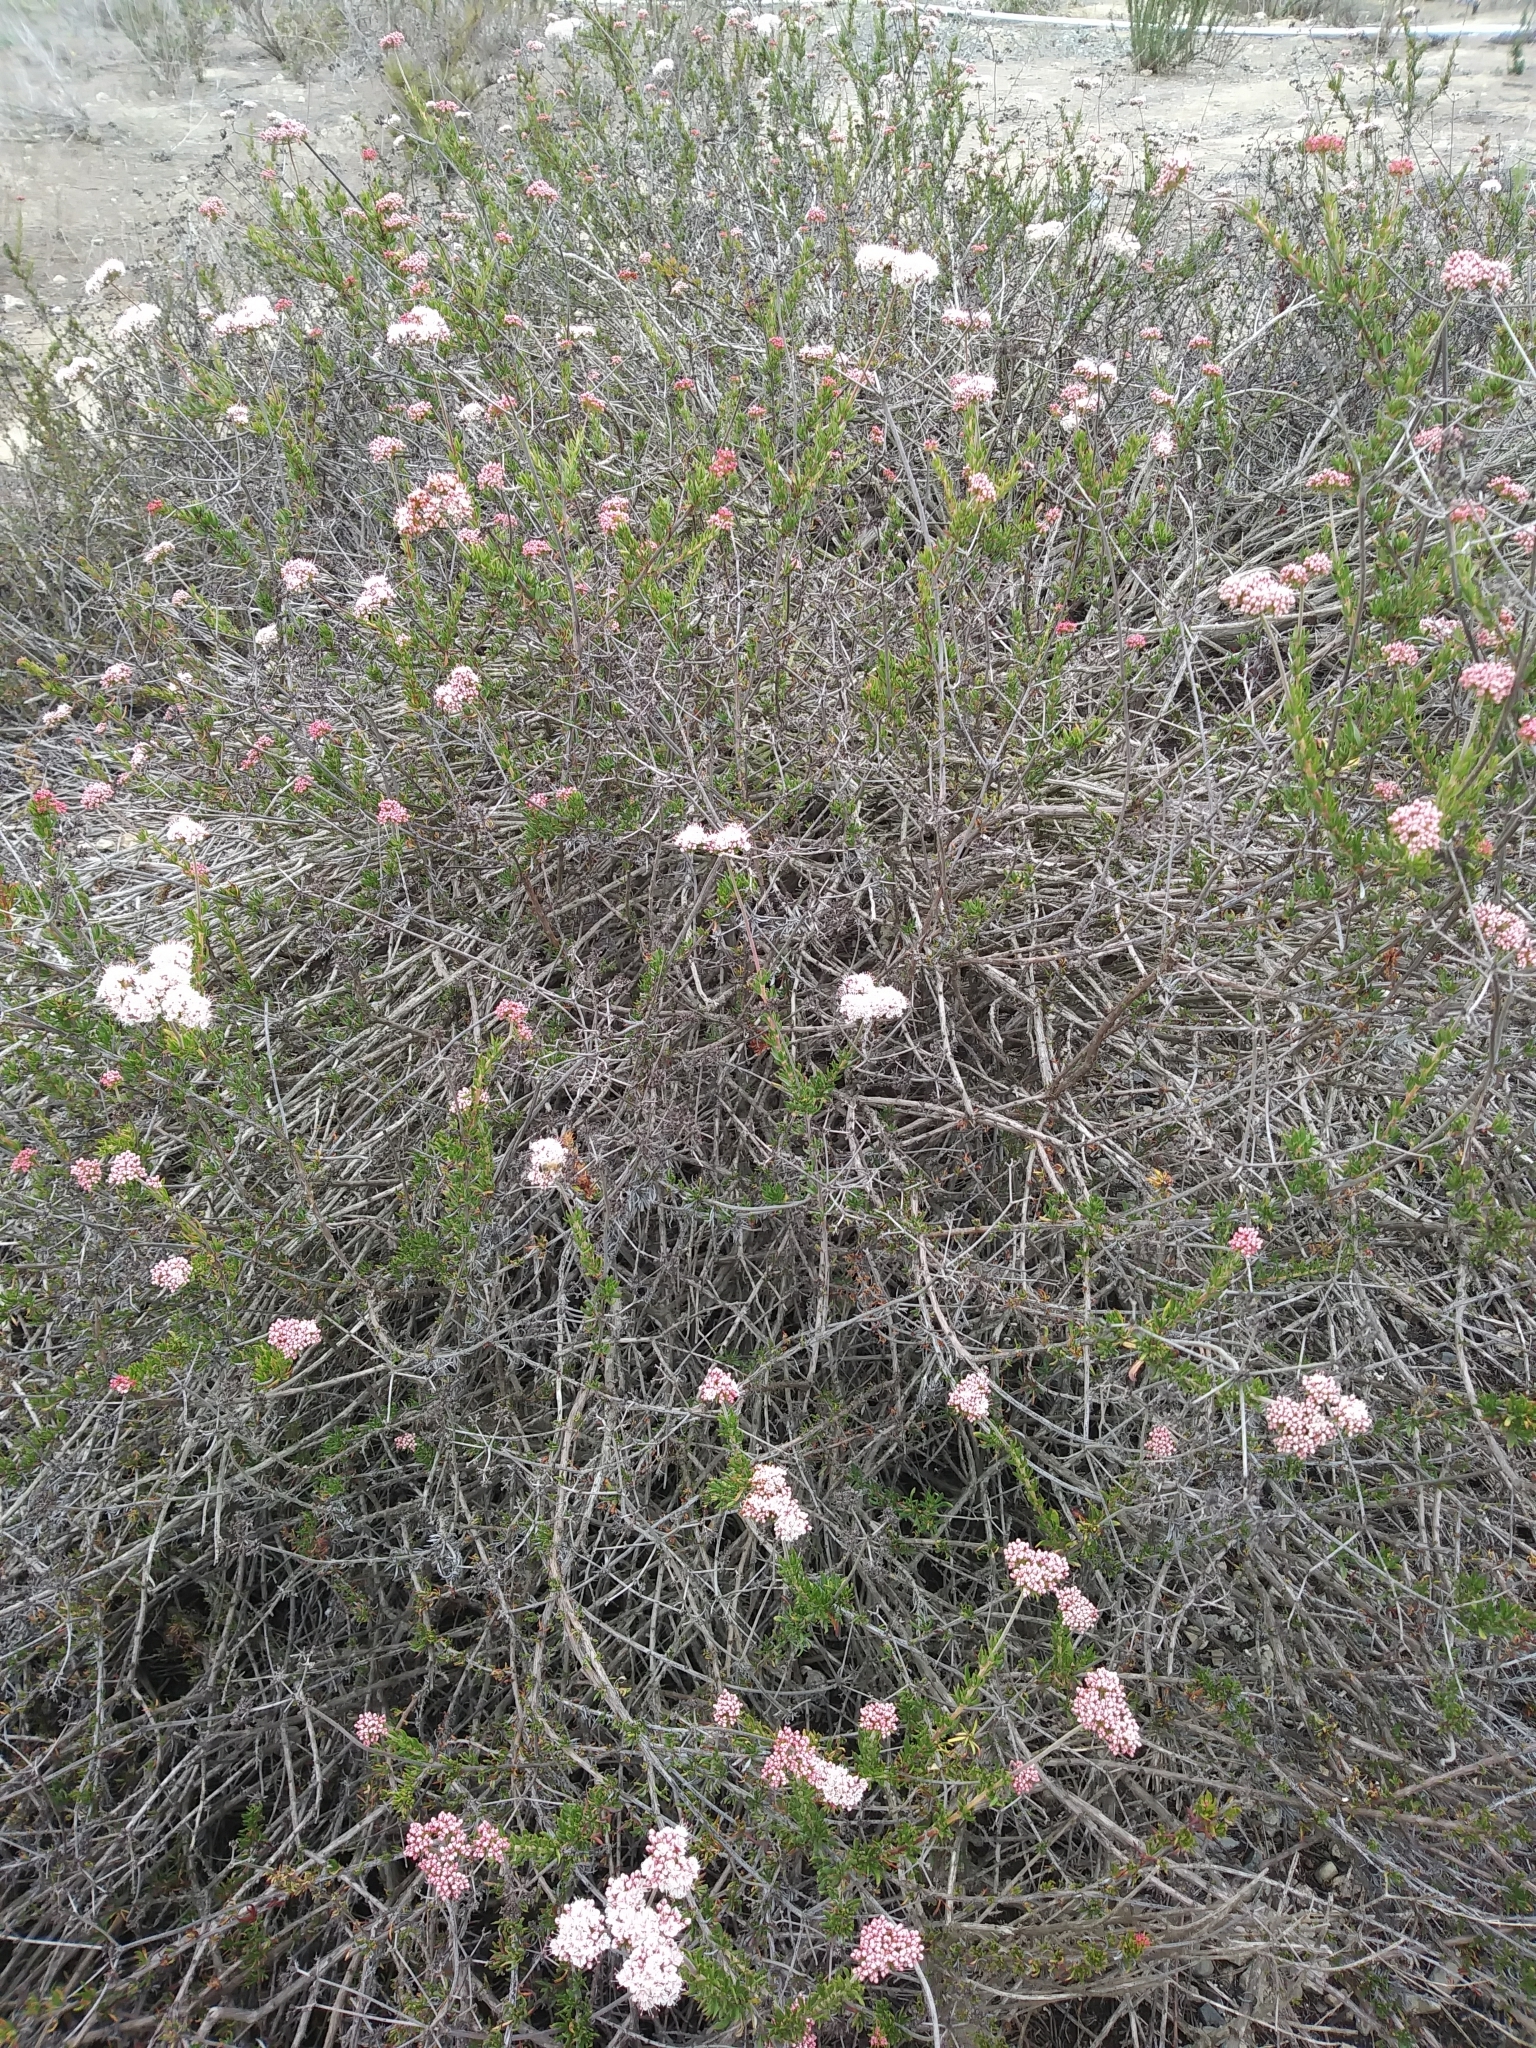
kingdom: Plantae
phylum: Tracheophyta
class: Magnoliopsida
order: Caryophyllales
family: Polygonaceae
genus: Eriogonum
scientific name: Eriogonum fasciculatum
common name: California wild buckwheat
